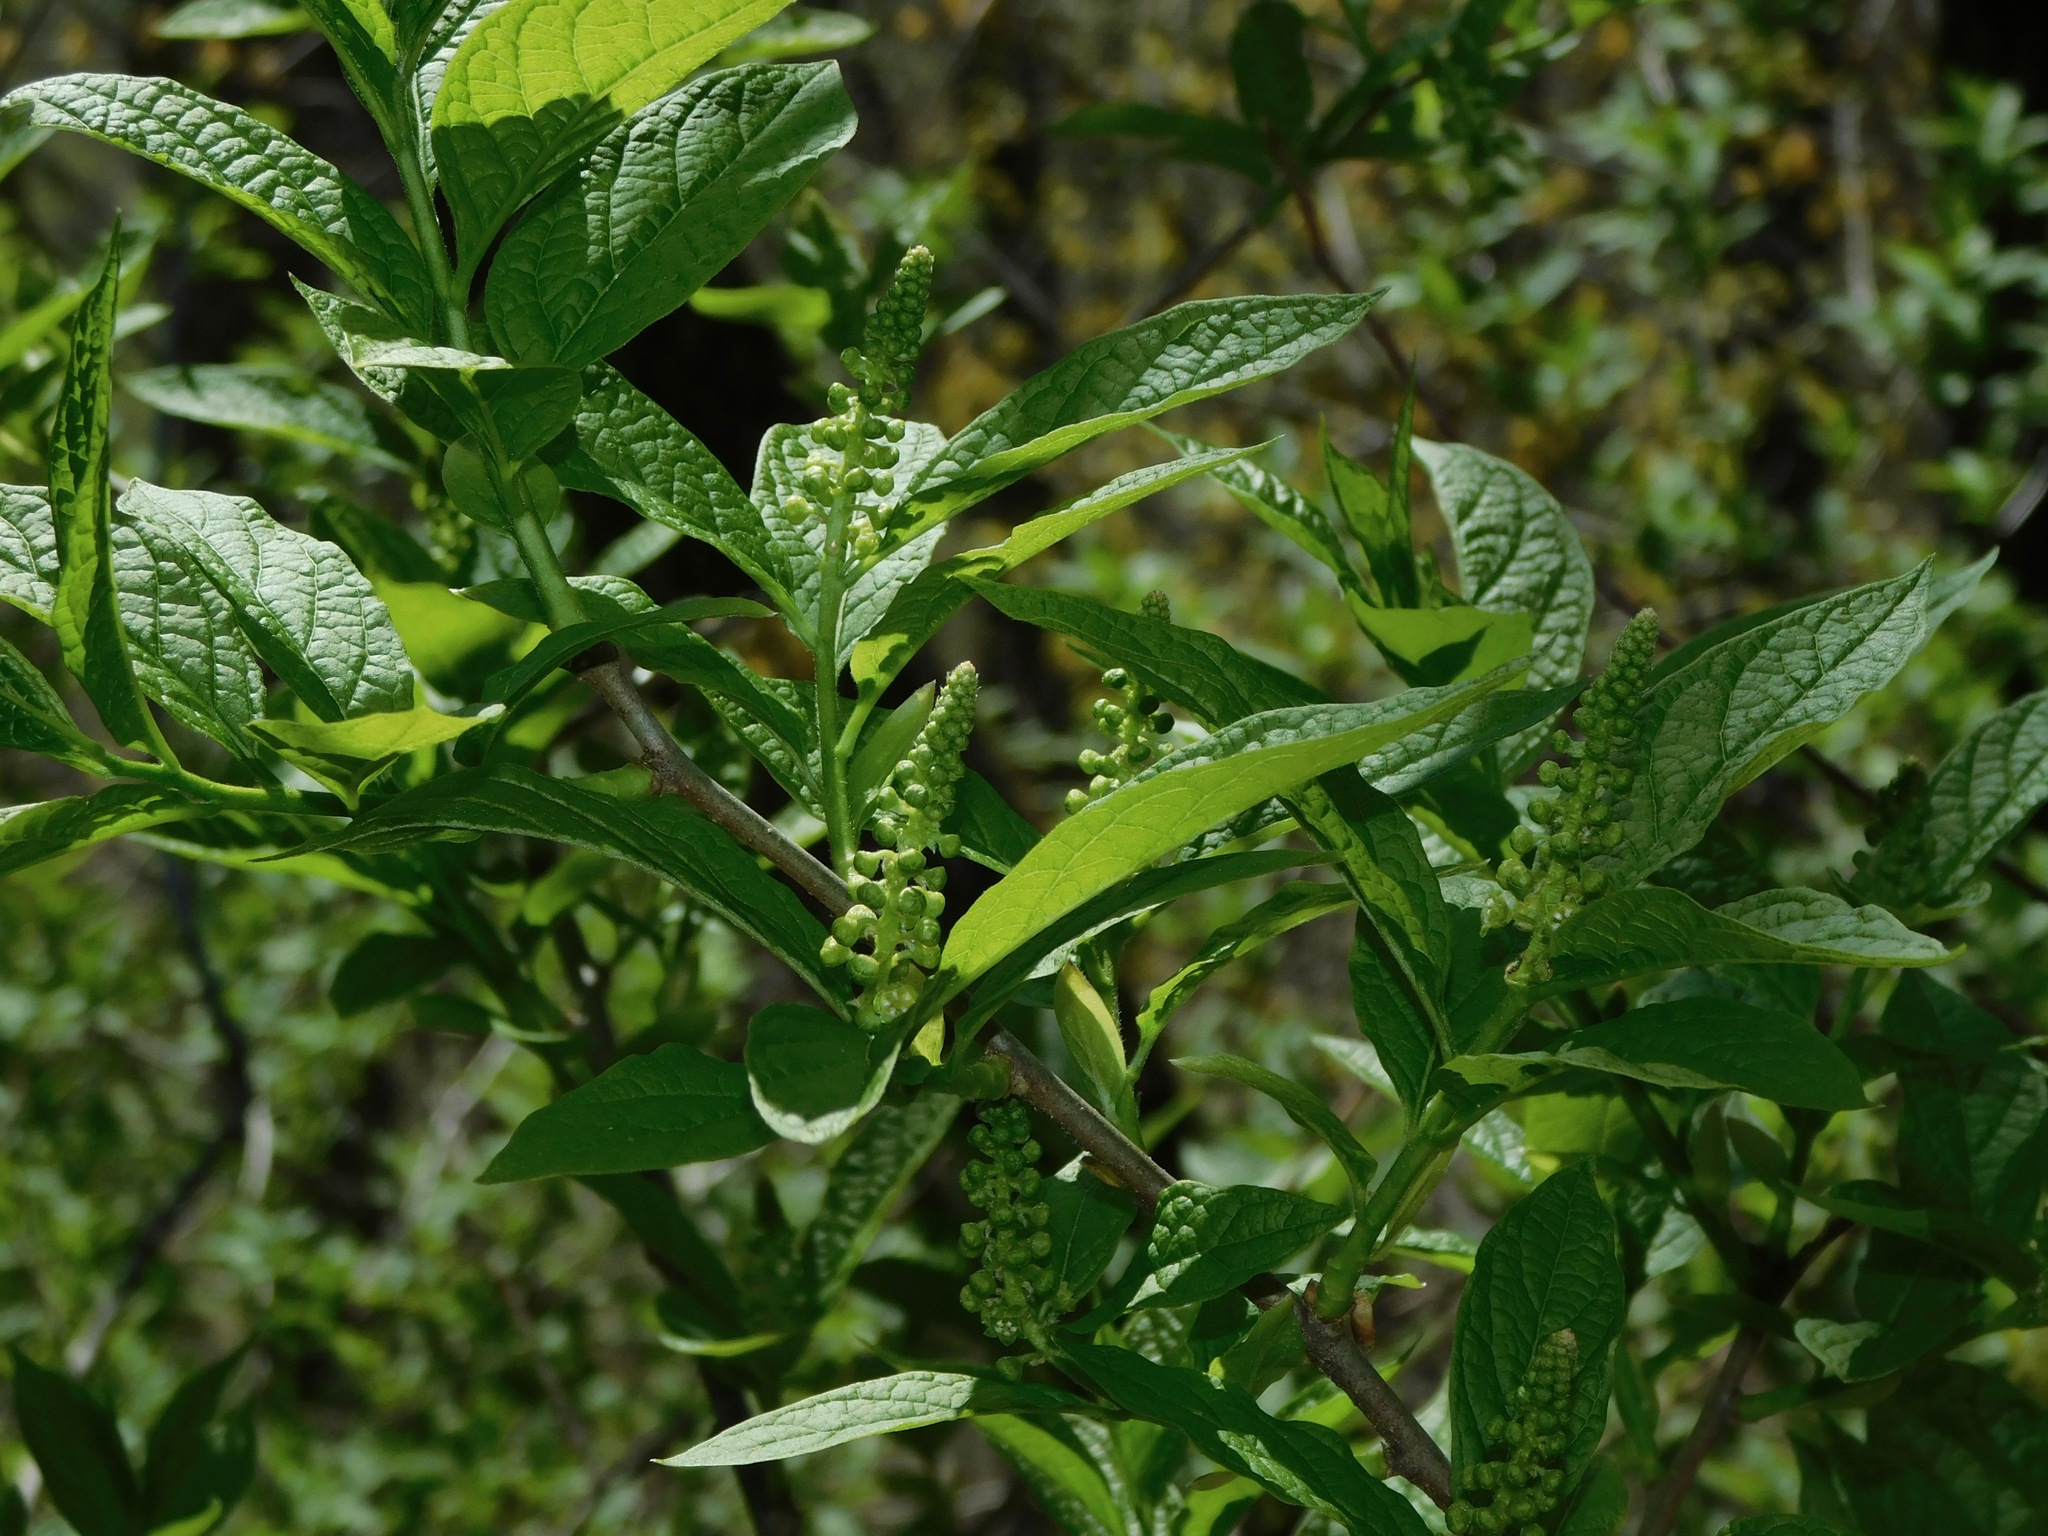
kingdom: Plantae
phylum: Tracheophyta
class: Magnoliopsida
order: Santalales
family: Cervantesiaceae
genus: Pyrularia
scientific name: Pyrularia pubera
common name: Oilnut
